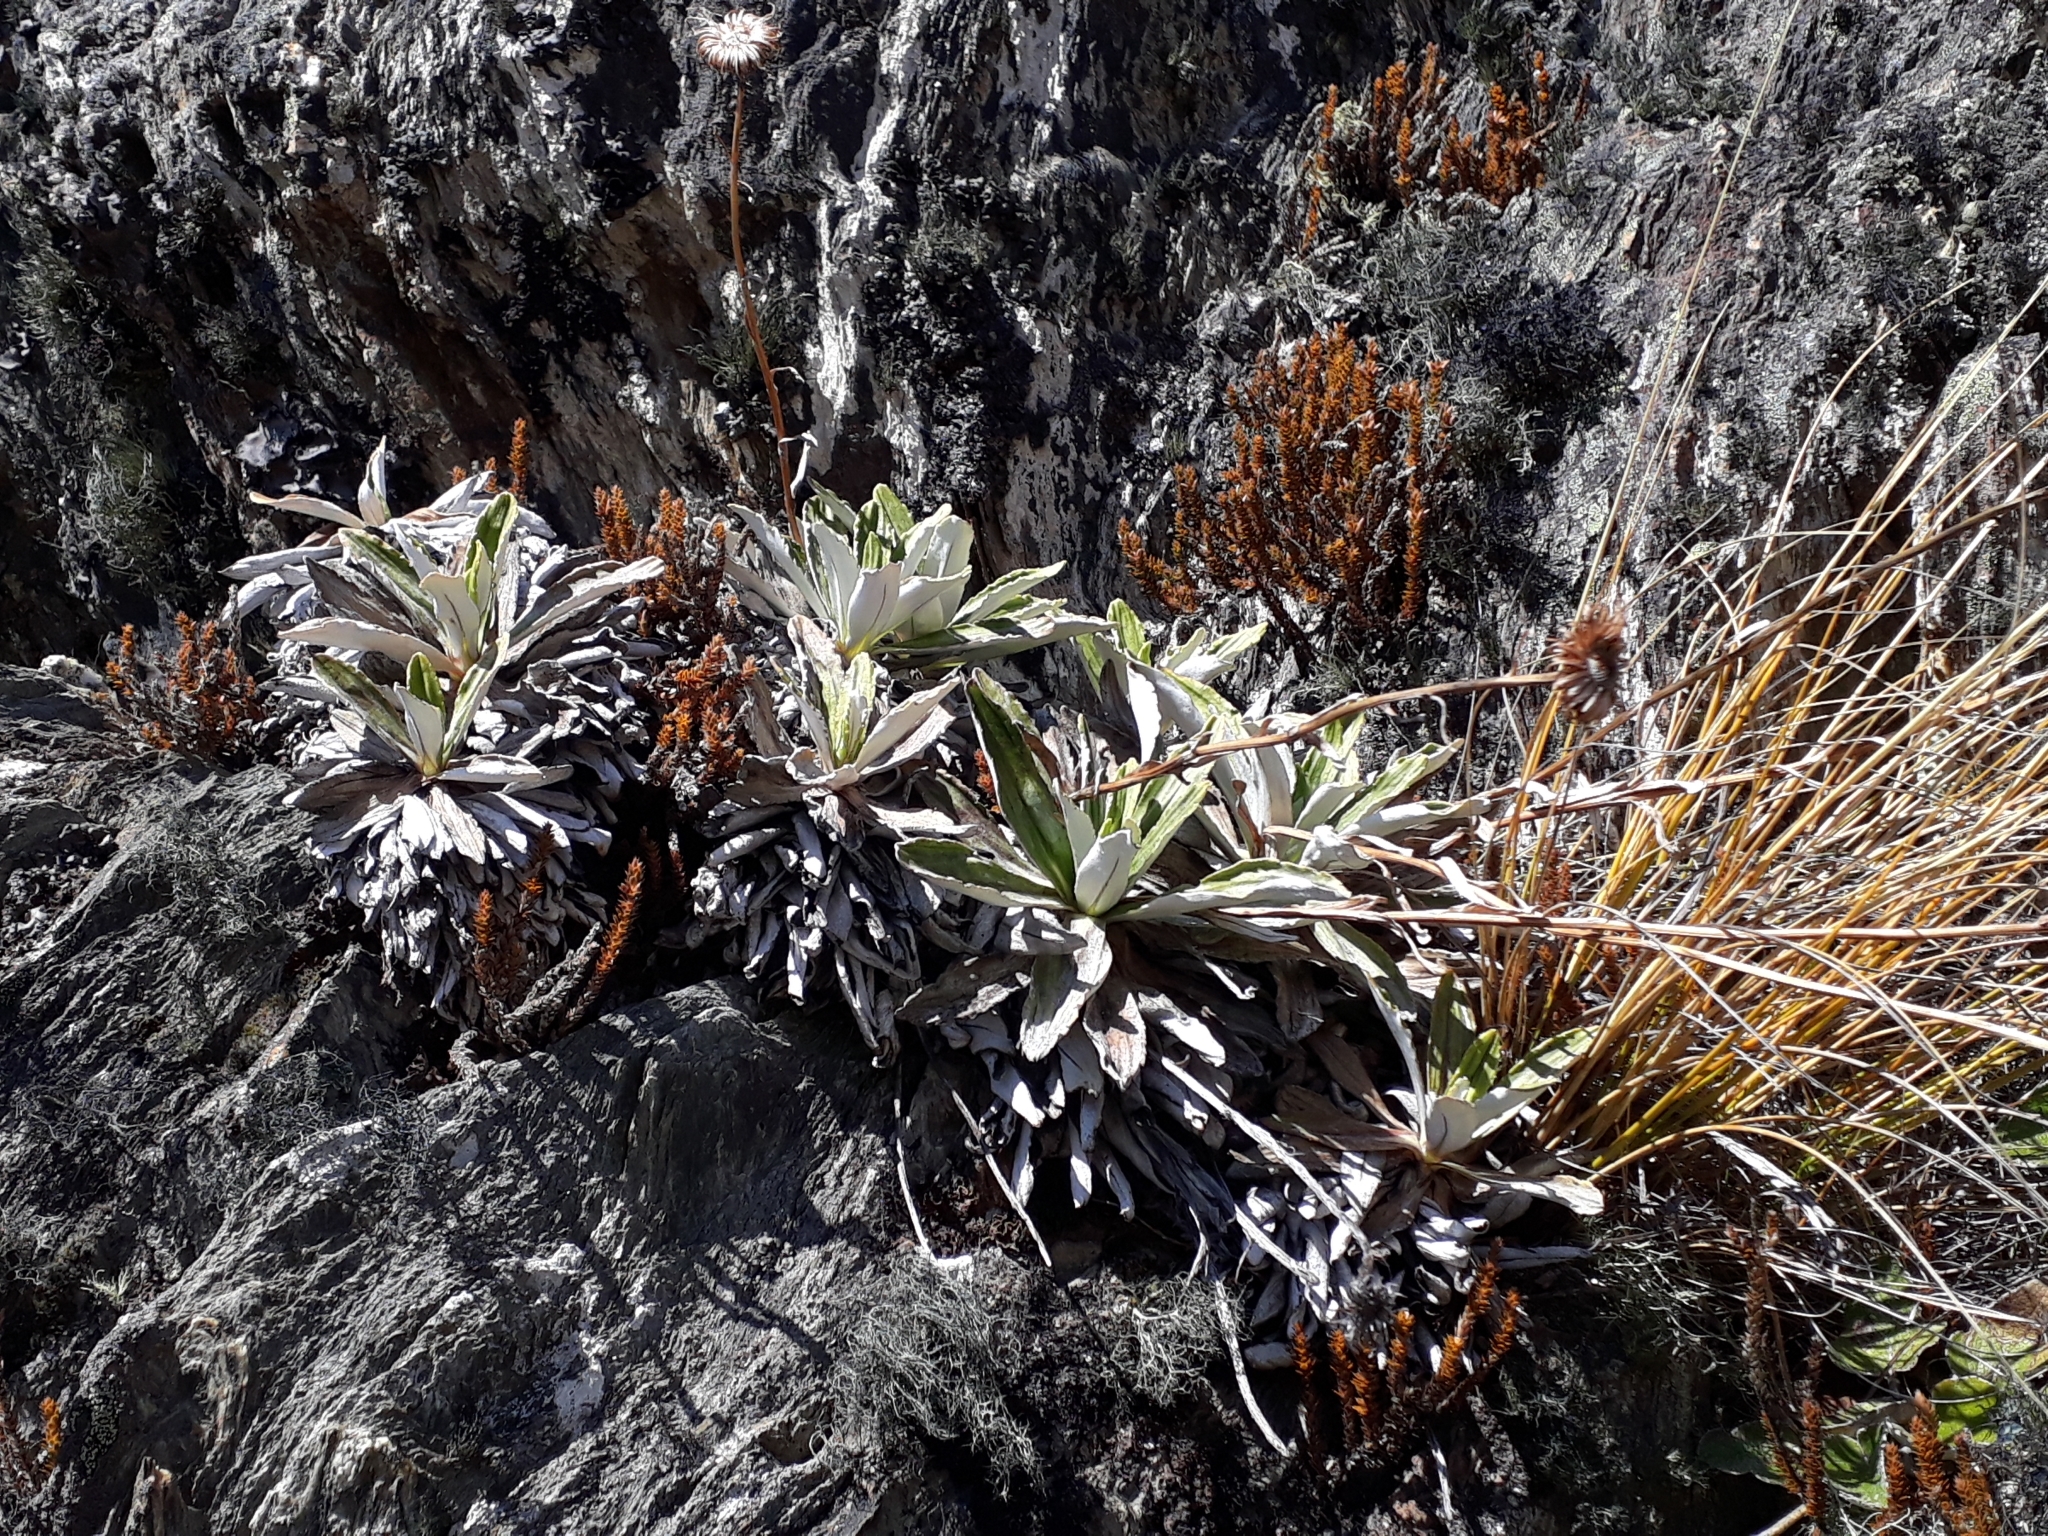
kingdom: Plantae
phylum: Tracheophyta
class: Magnoliopsida
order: Asterales
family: Asteraceae
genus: Celmisia
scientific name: Celmisia densiflora
